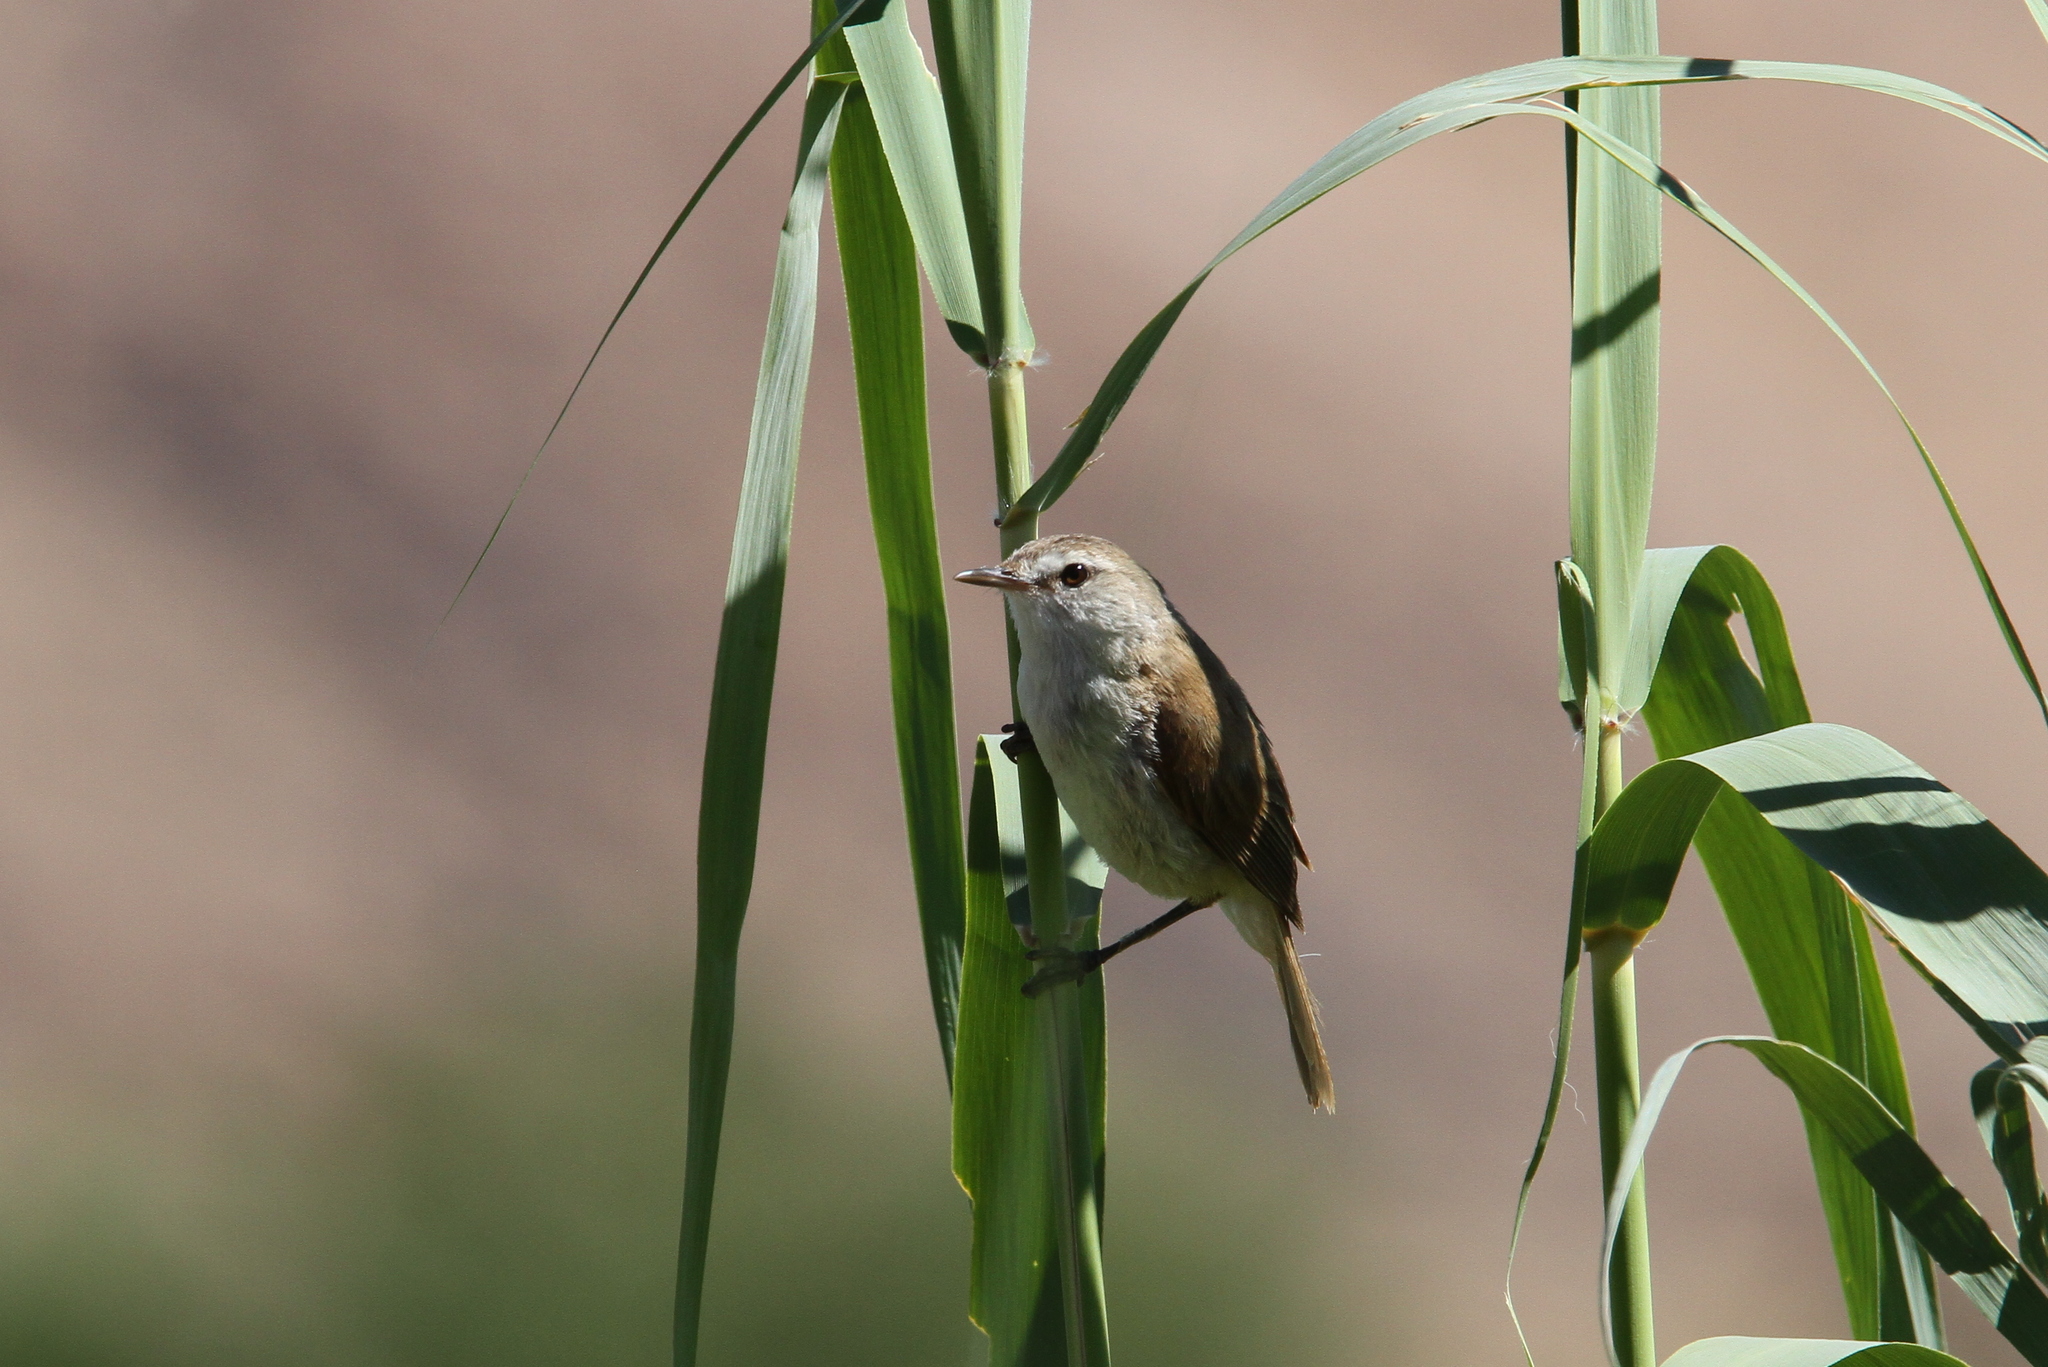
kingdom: Animalia
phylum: Chordata
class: Aves
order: Passeriformes
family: Acrocephalidae
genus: Acrocephalus
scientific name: Acrocephalus gracilirostris
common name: Lesser swamp warbler
